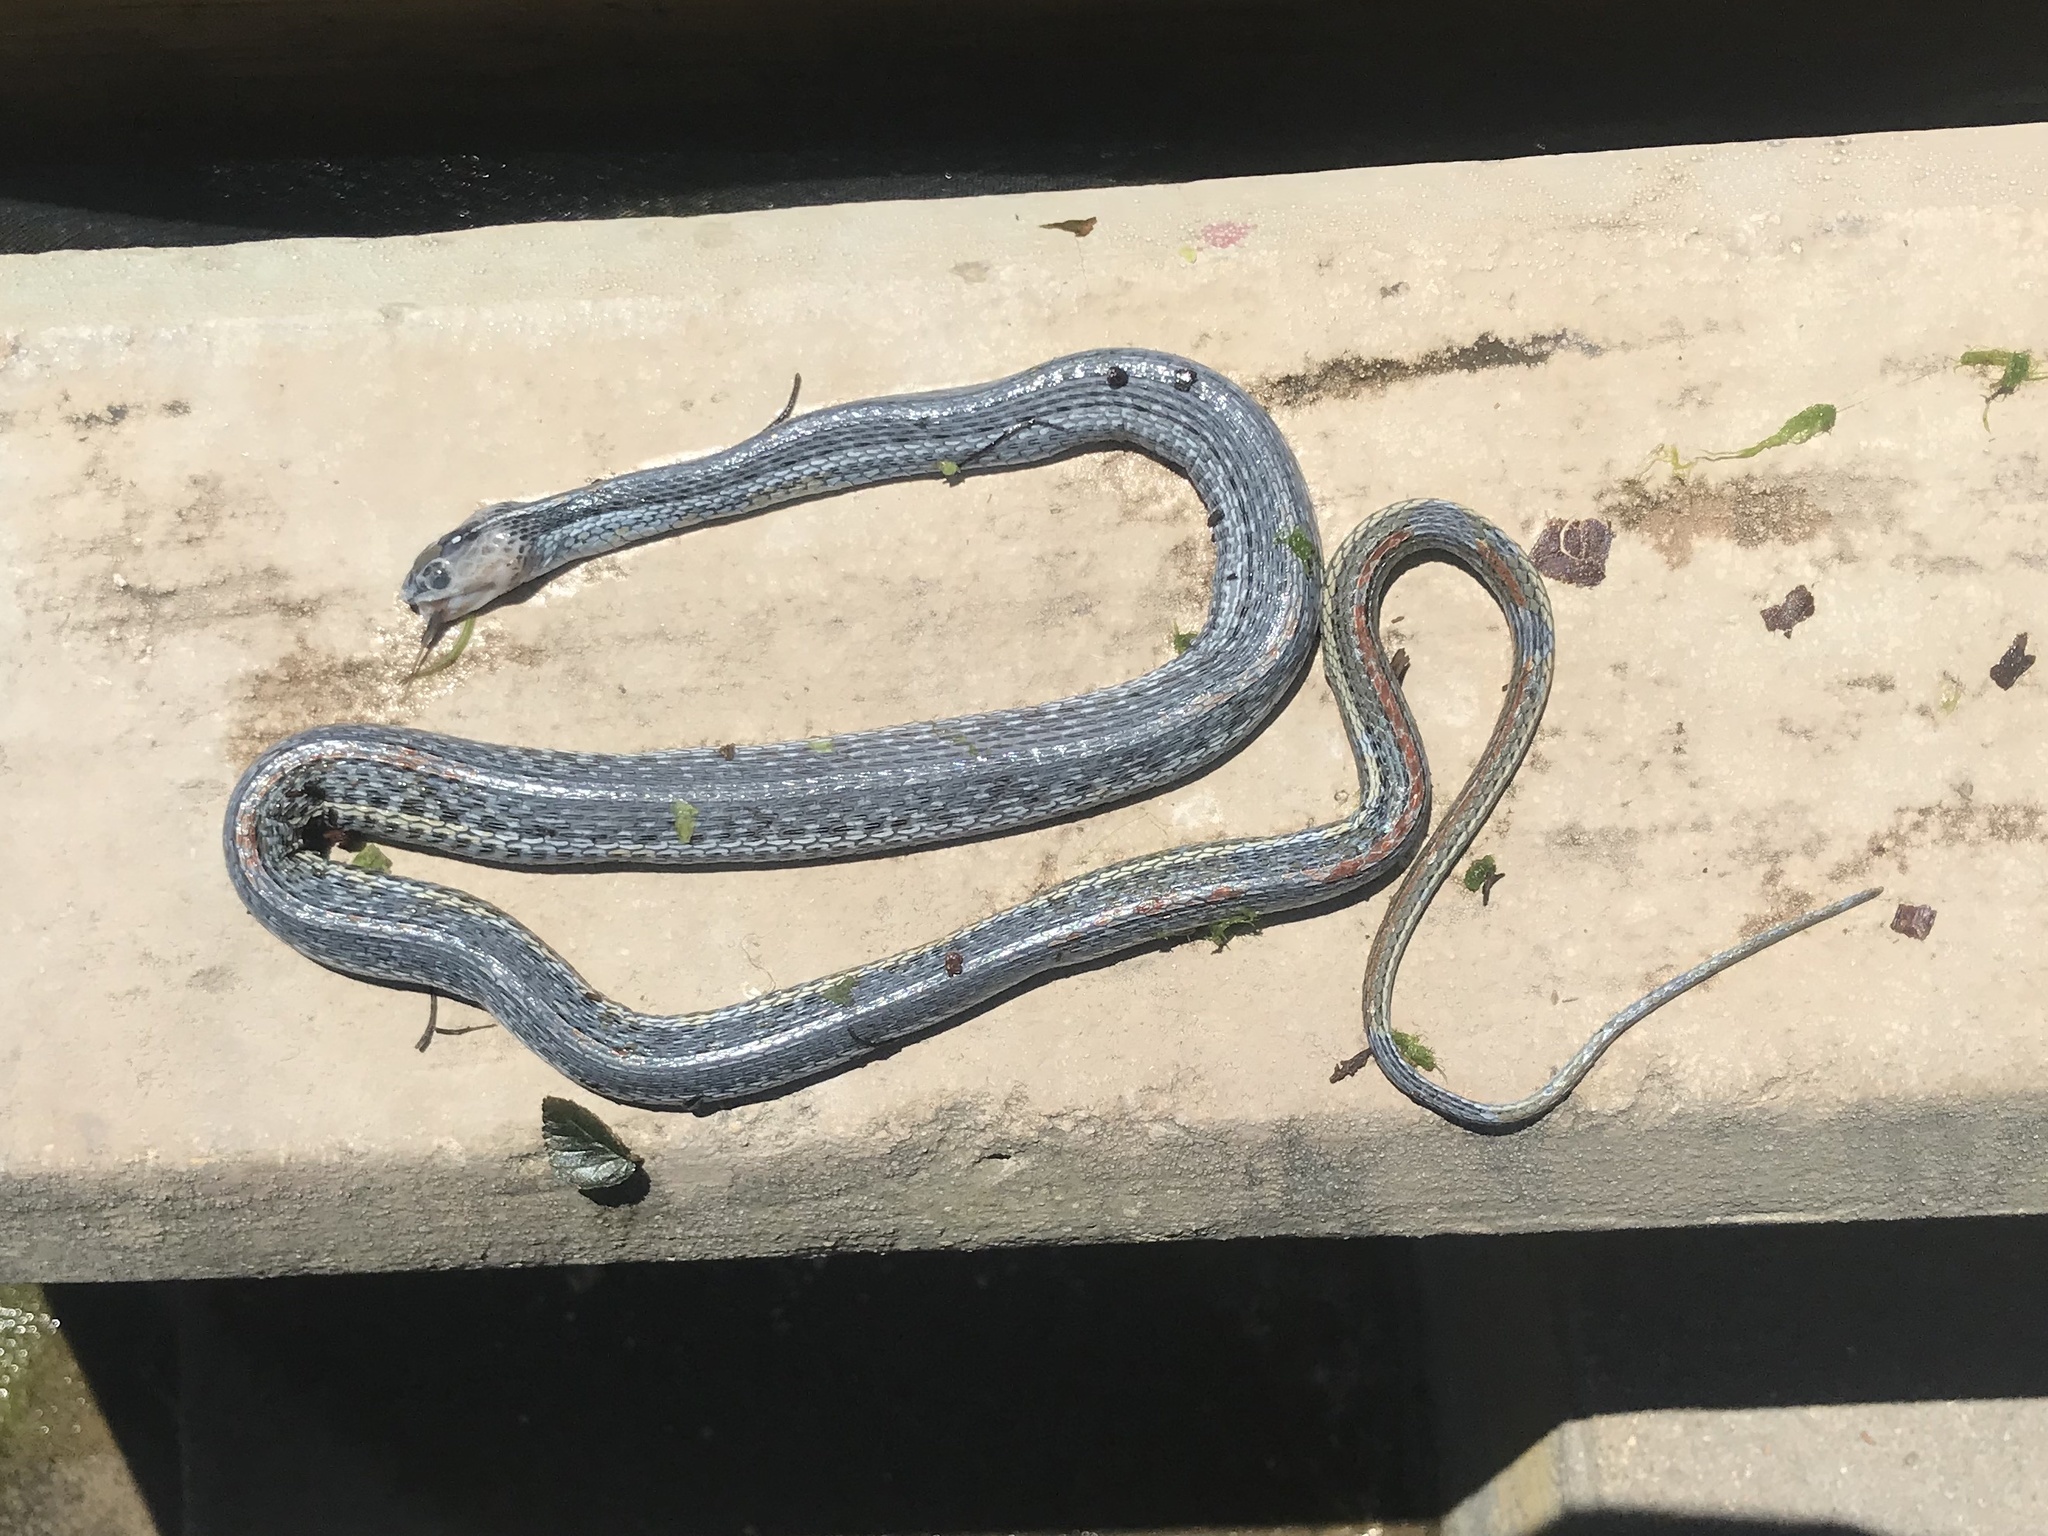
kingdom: Animalia
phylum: Chordata
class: Squamata
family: Colubridae
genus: Thamnophis
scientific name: Thamnophis proximus
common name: Western ribbon snake
